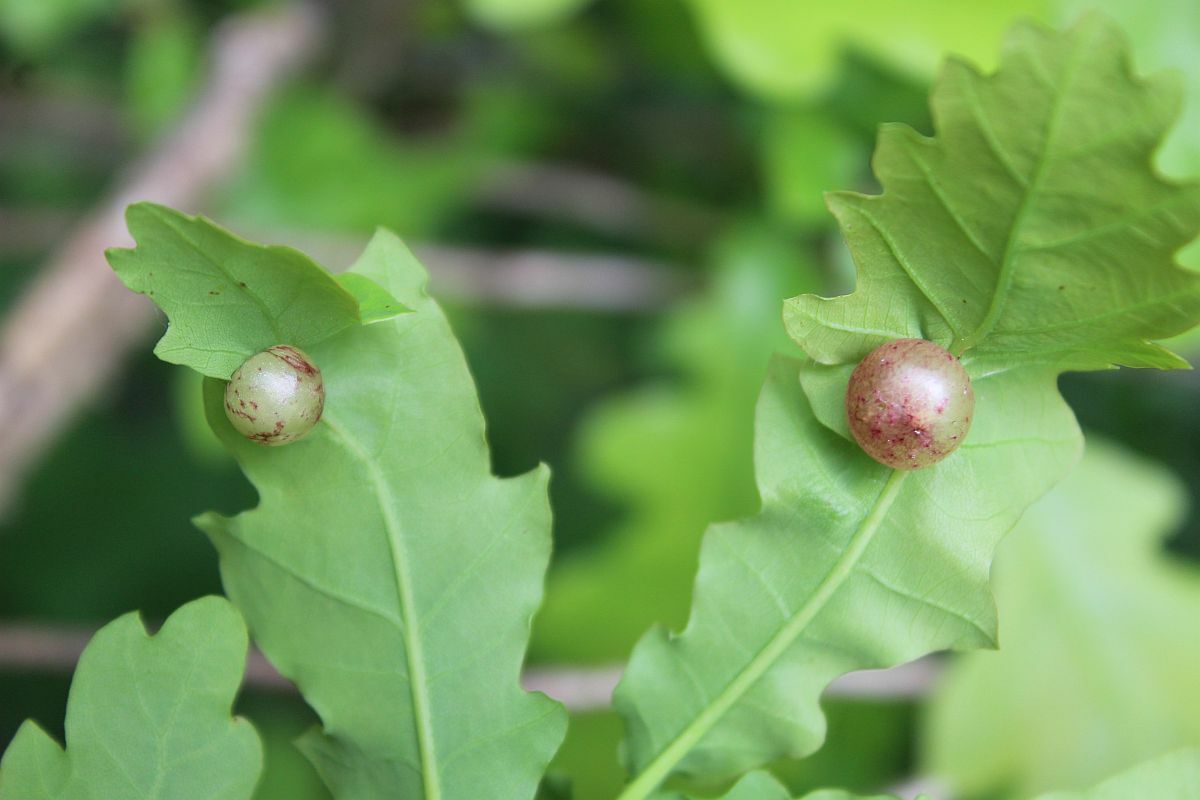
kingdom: Animalia
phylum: Arthropoda
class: Insecta
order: Hymenoptera
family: Cynipidae
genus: Neuroterus
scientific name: Neuroterus quercusbaccarum
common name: Common spangle gall
